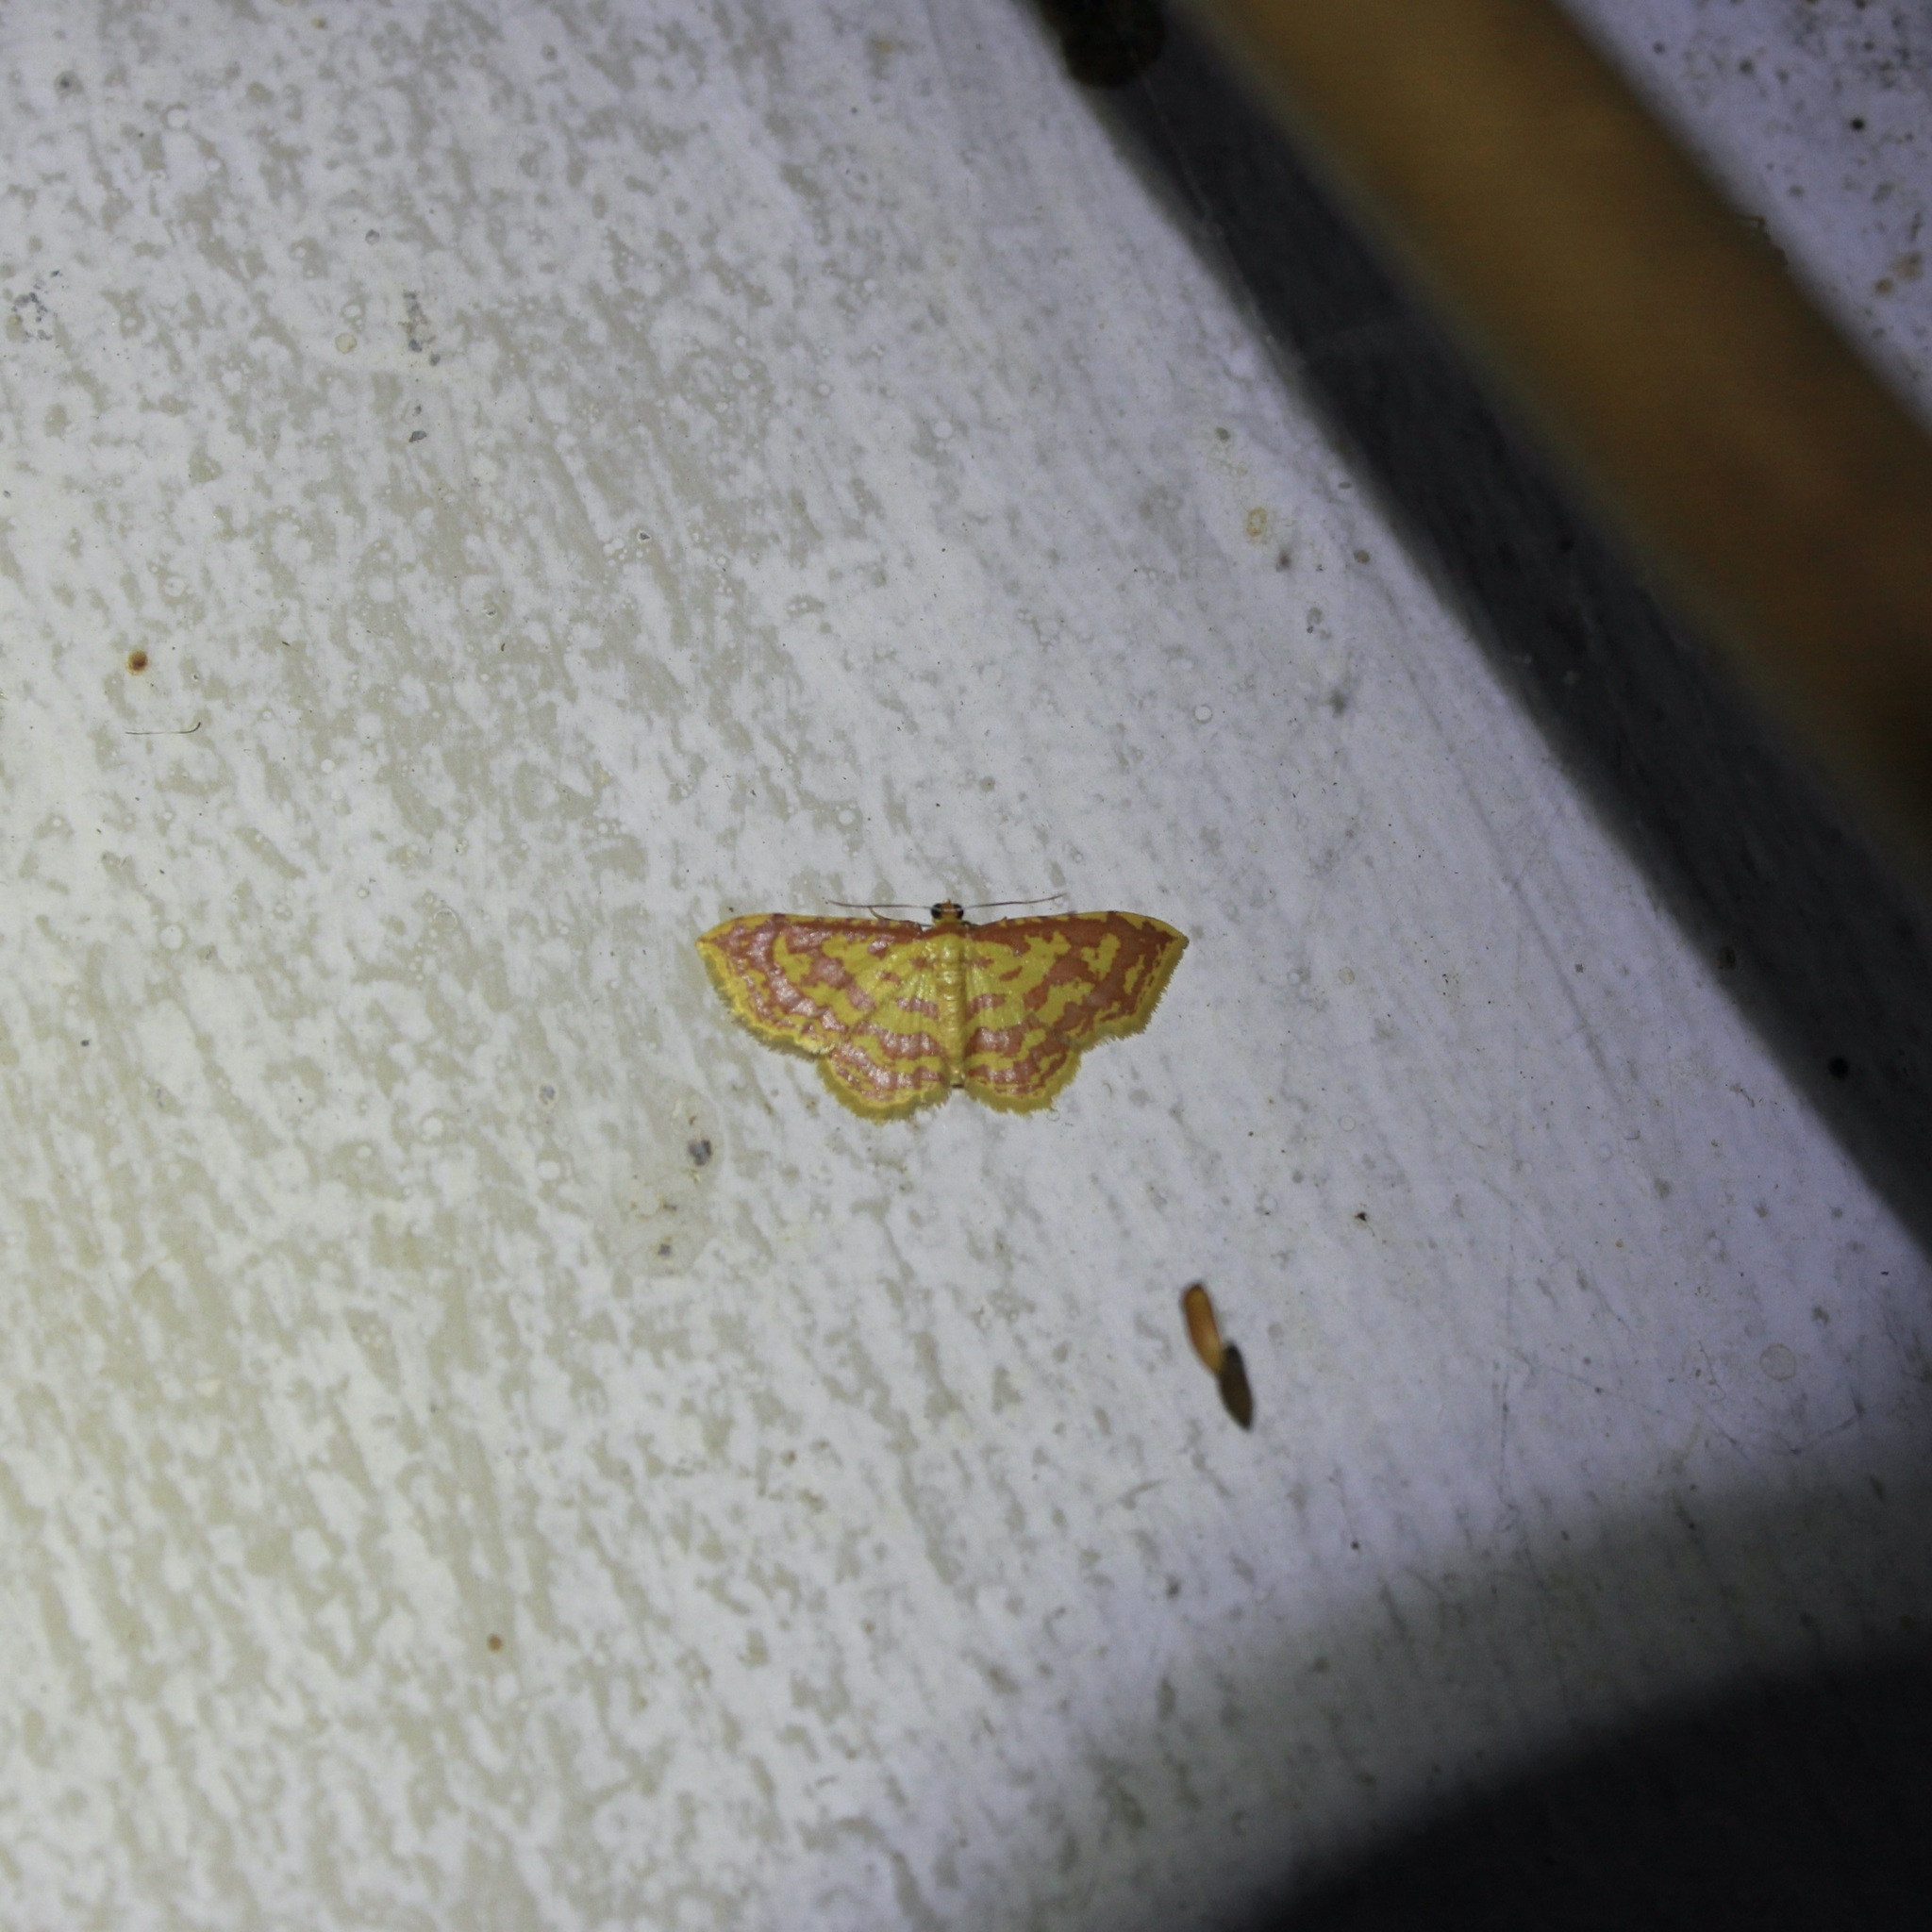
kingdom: Animalia
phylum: Arthropoda
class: Insecta
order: Lepidoptera
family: Geometridae
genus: Eois
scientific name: Eois contractata
